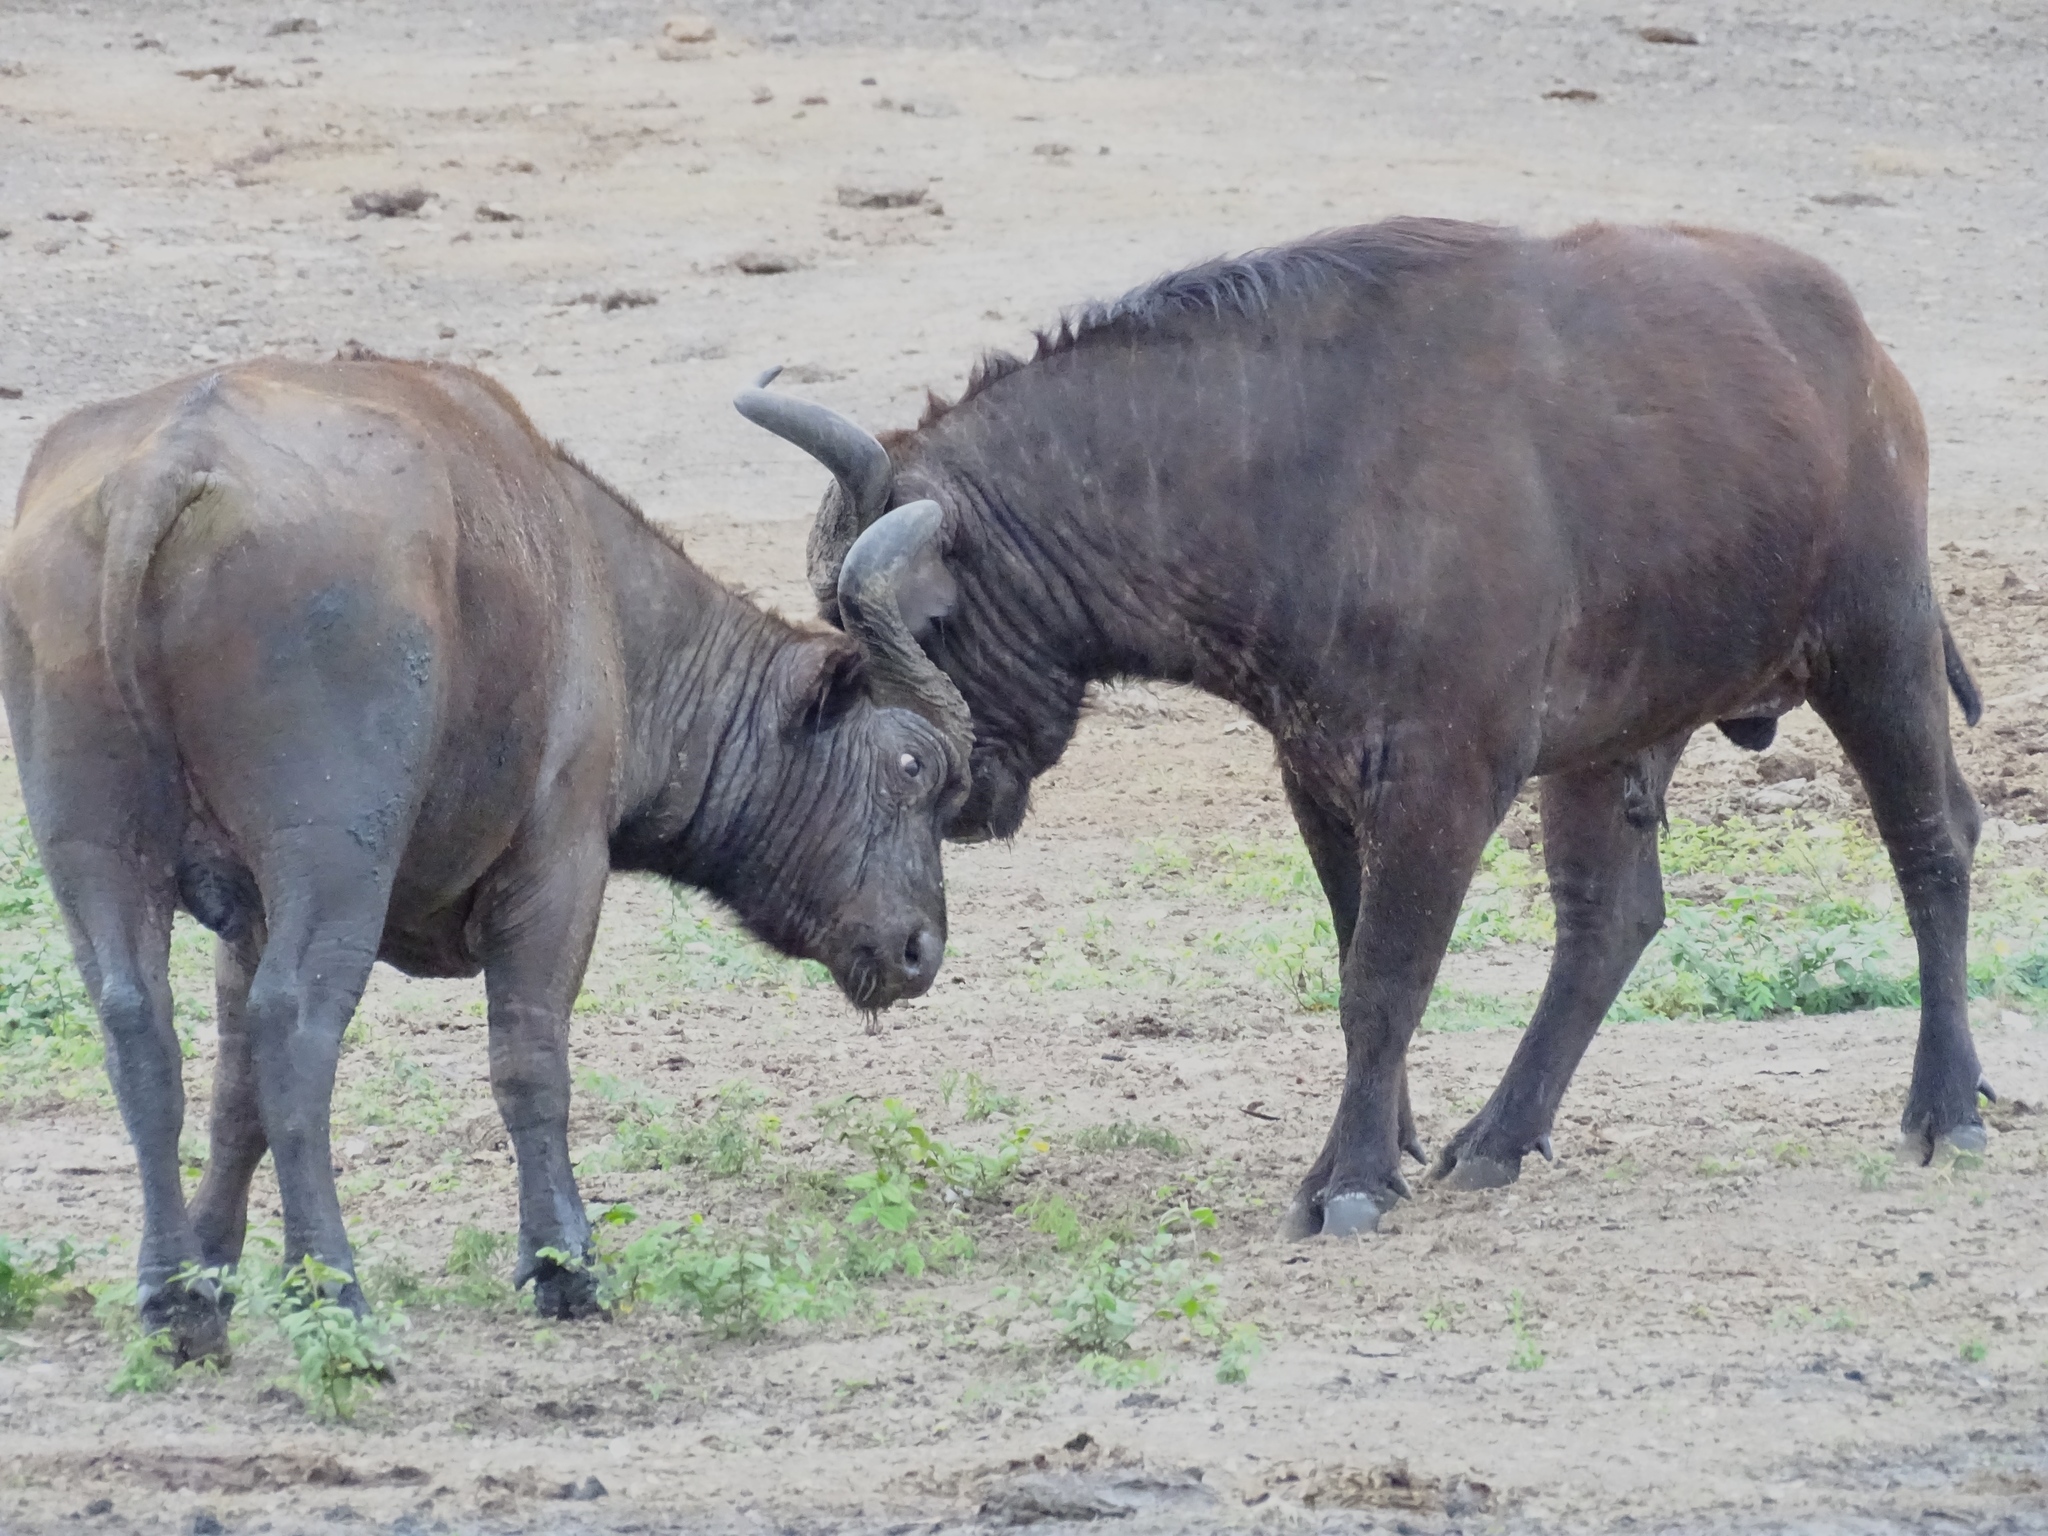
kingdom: Animalia
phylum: Chordata
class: Mammalia
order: Artiodactyla
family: Bovidae
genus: Syncerus
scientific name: Syncerus caffer
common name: African buffalo
